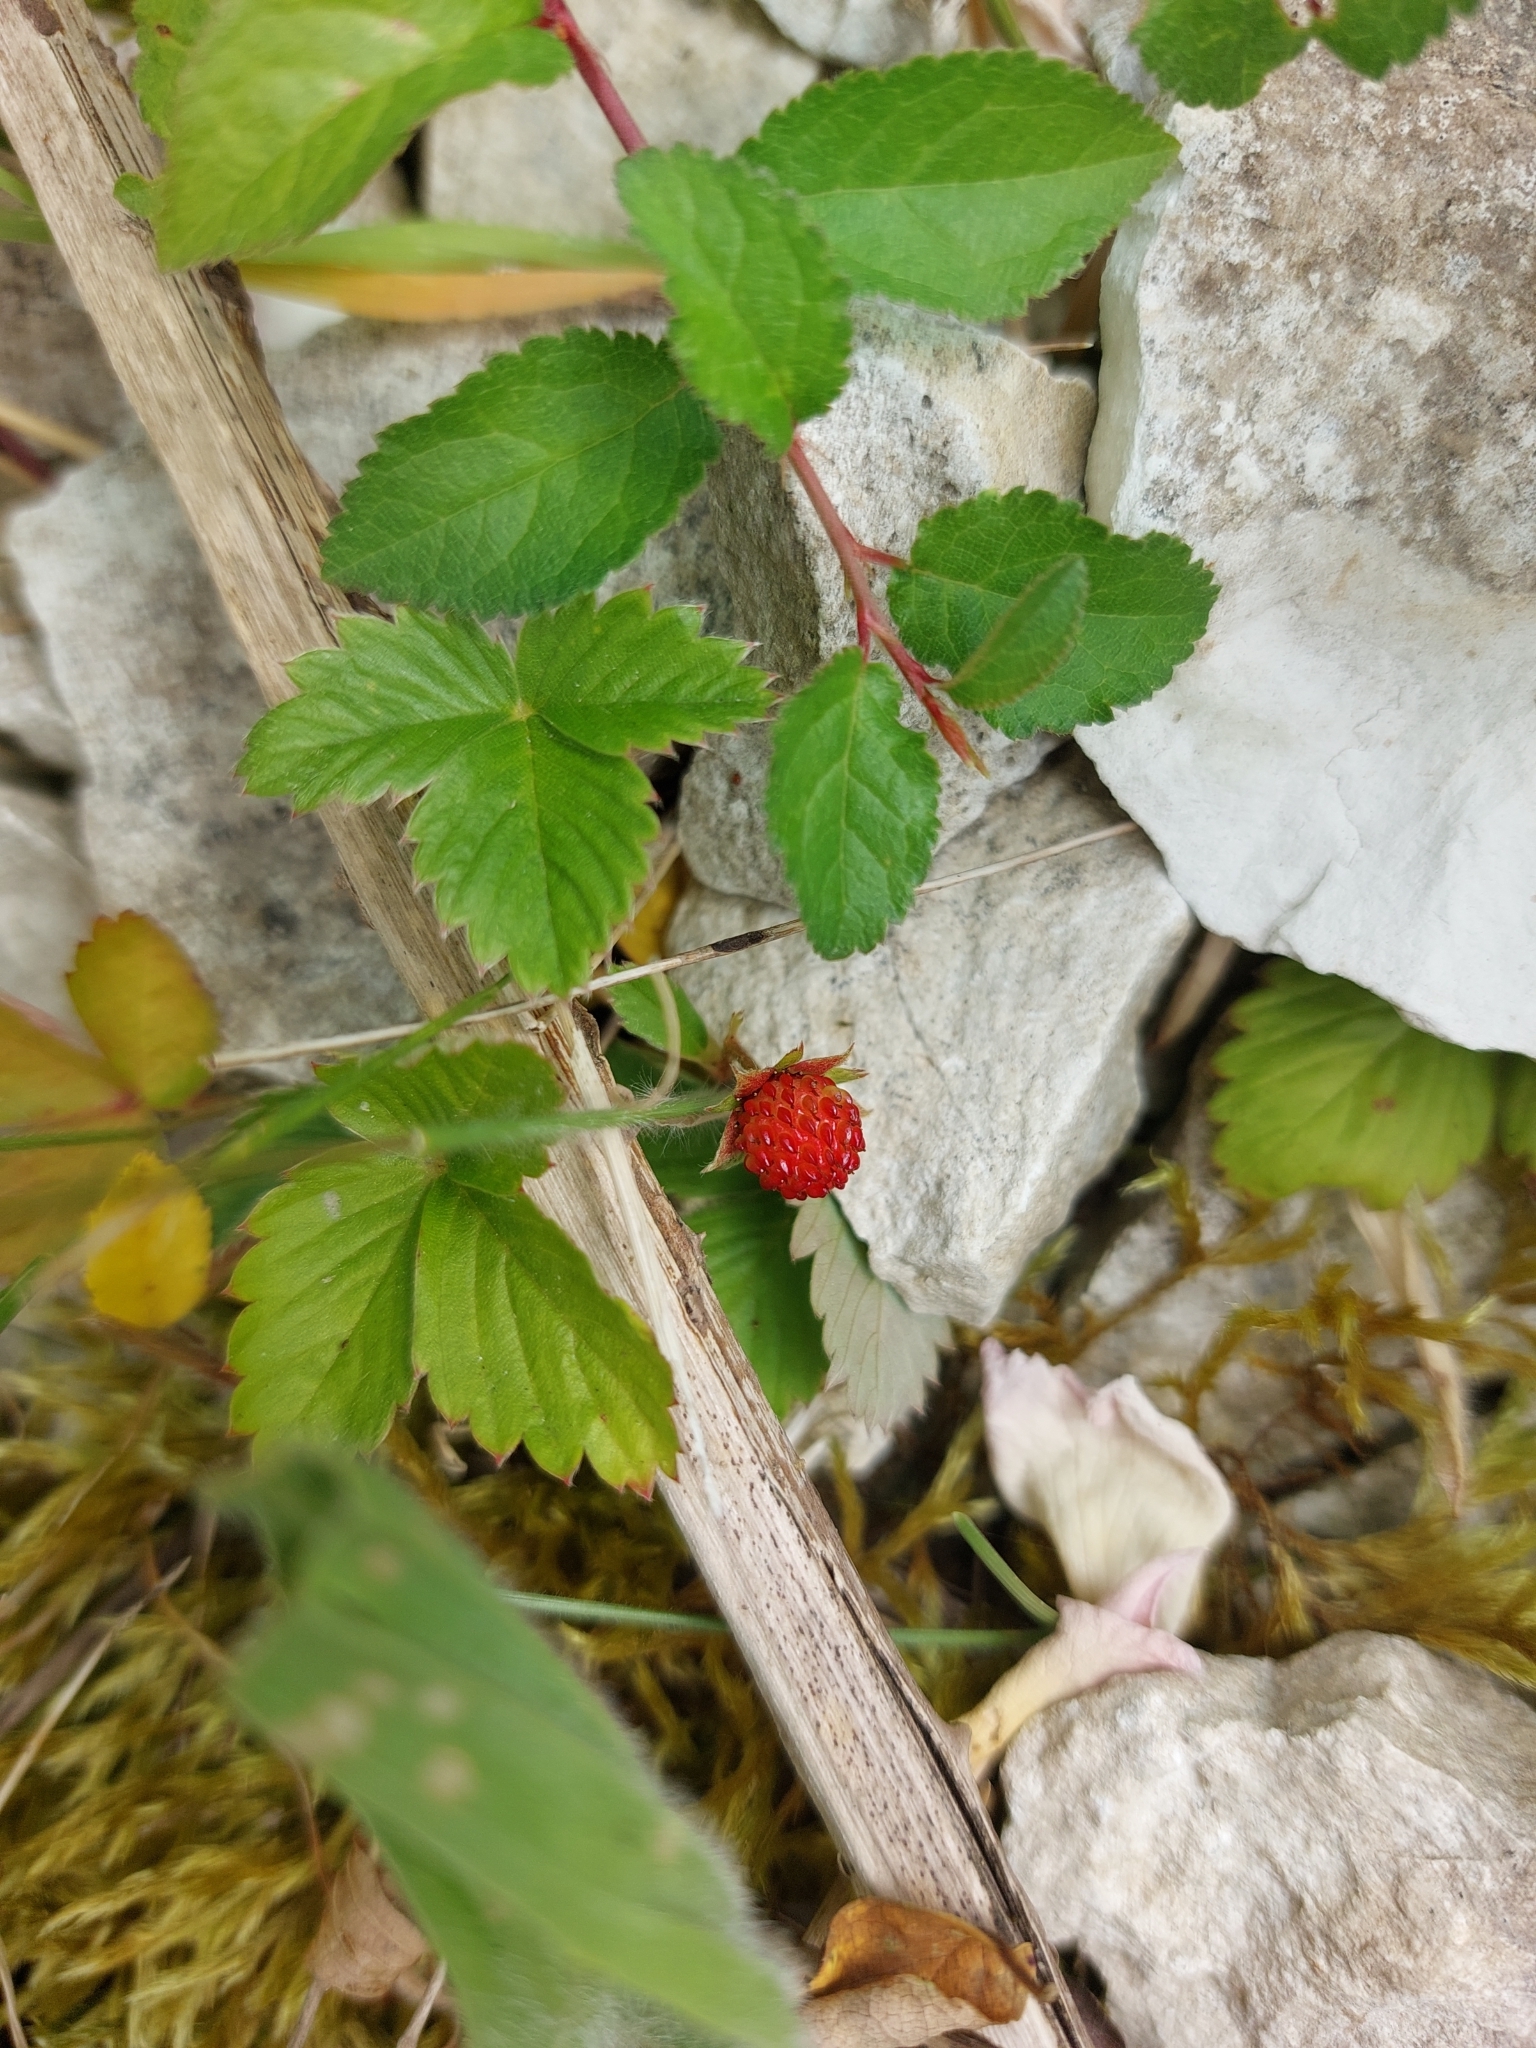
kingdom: Plantae
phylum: Tracheophyta
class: Magnoliopsida
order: Rosales
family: Rosaceae
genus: Fragaria
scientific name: Fragaria vesca
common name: Wild strawberry
